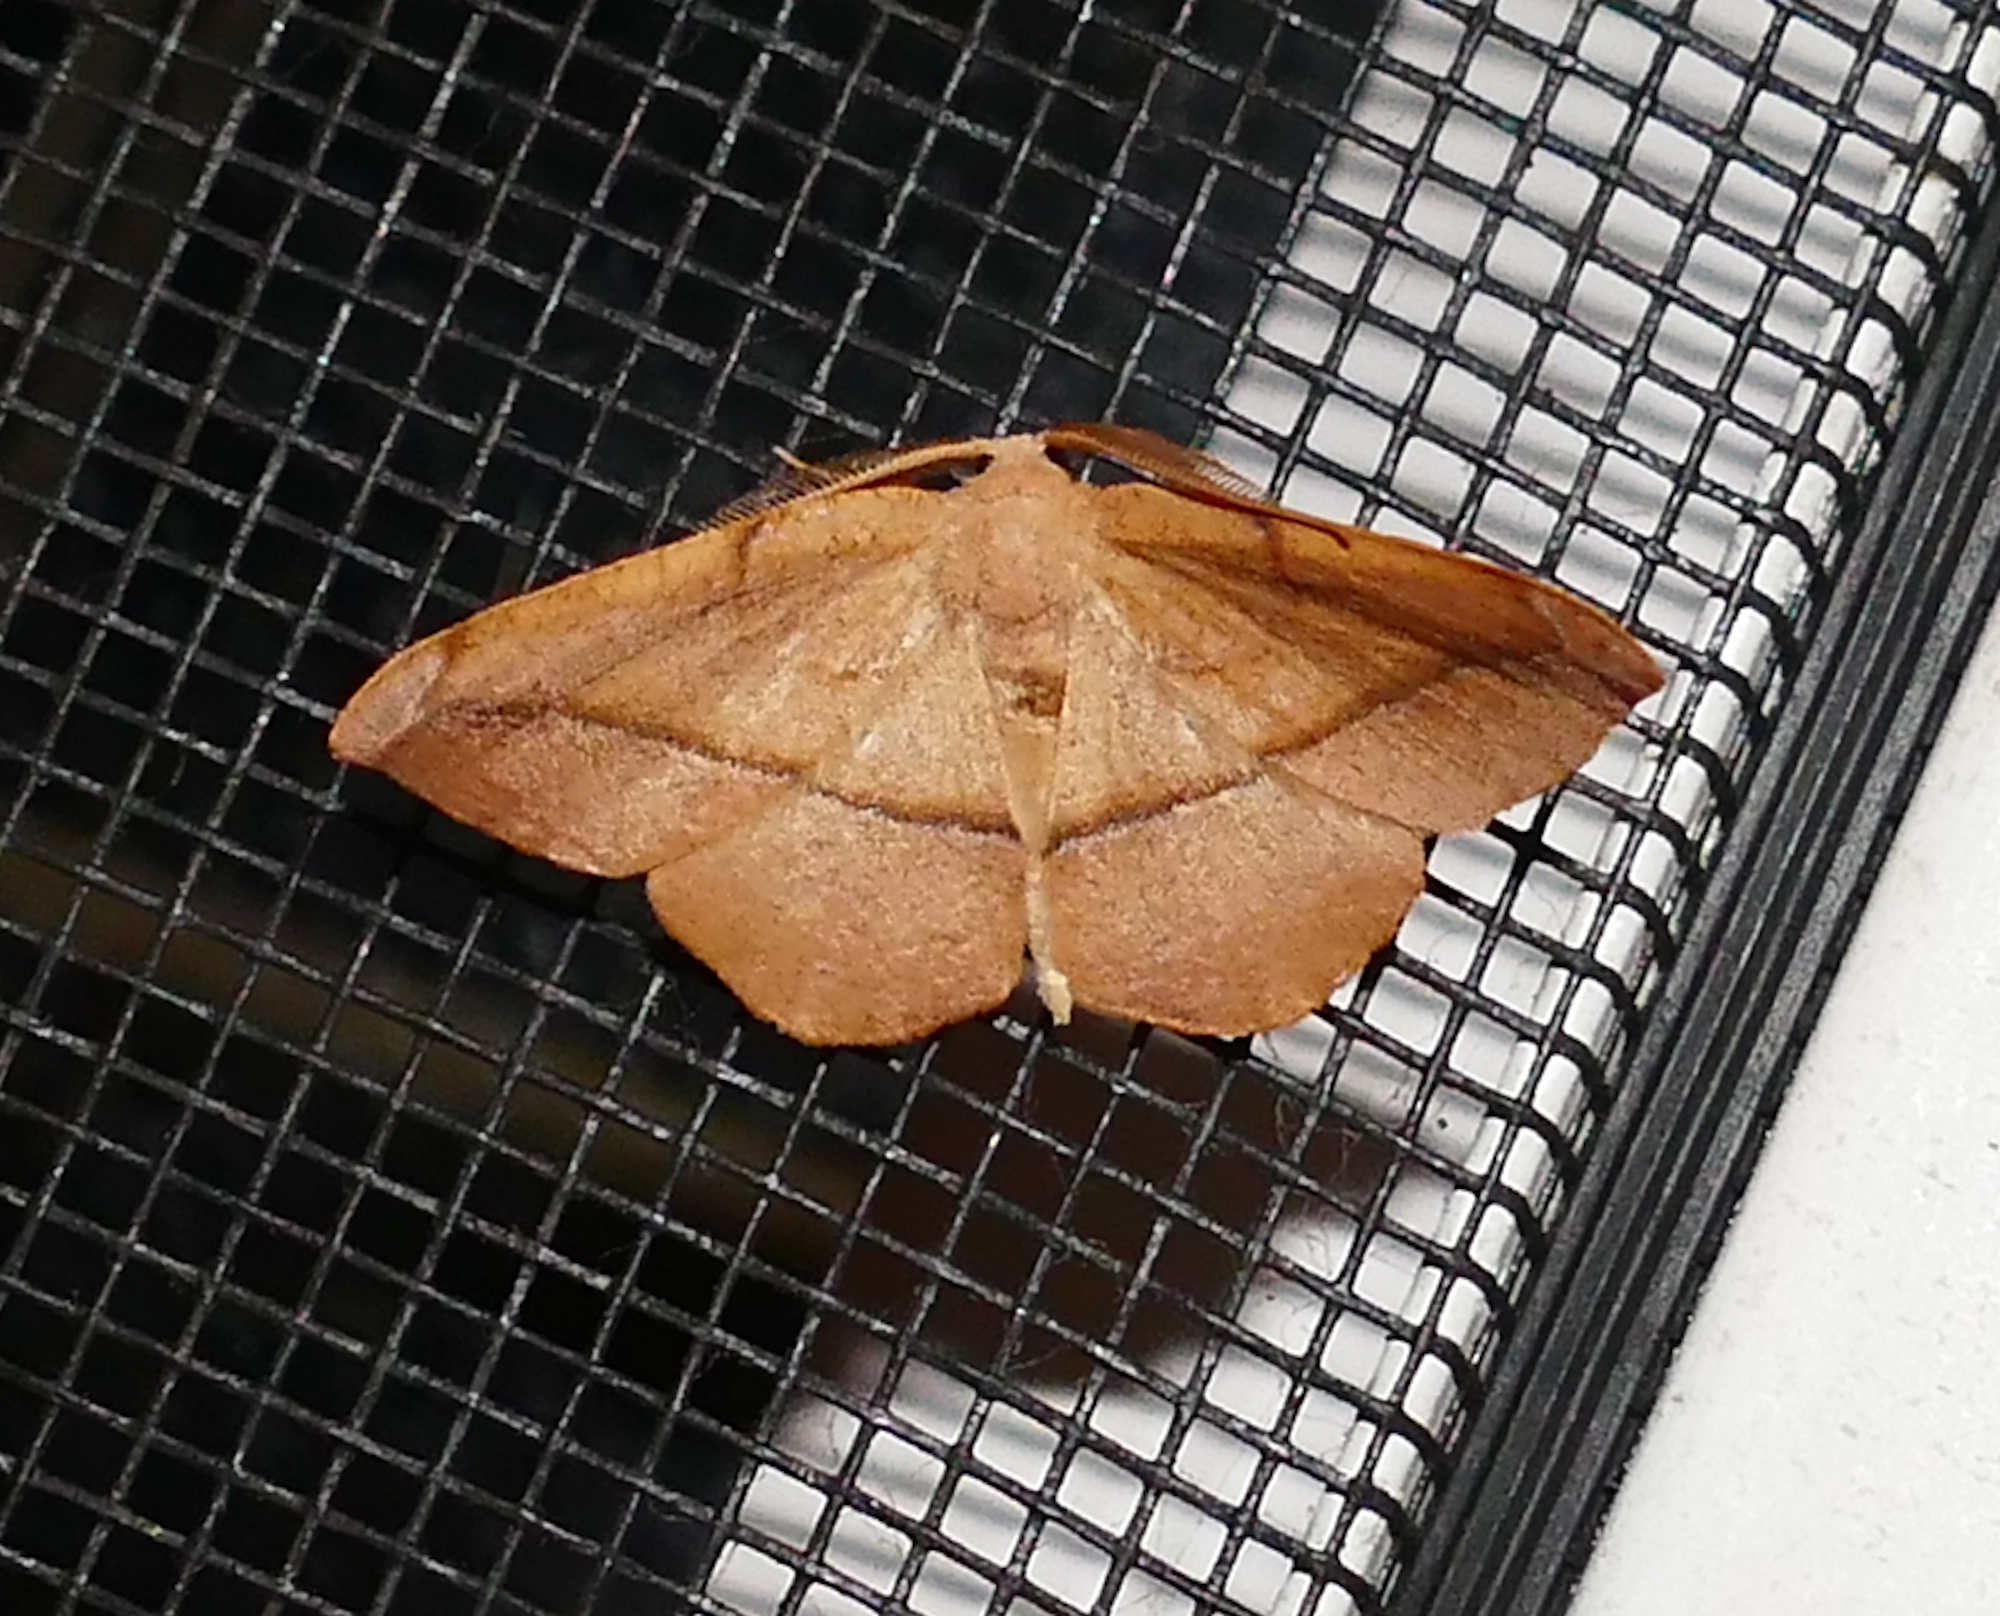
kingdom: Animalia
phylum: Arthropoda
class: Insecta
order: Lepidoptera
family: Geometridae
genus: Patalene
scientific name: Patalene olyzonaria
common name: Juniper geometer moth
